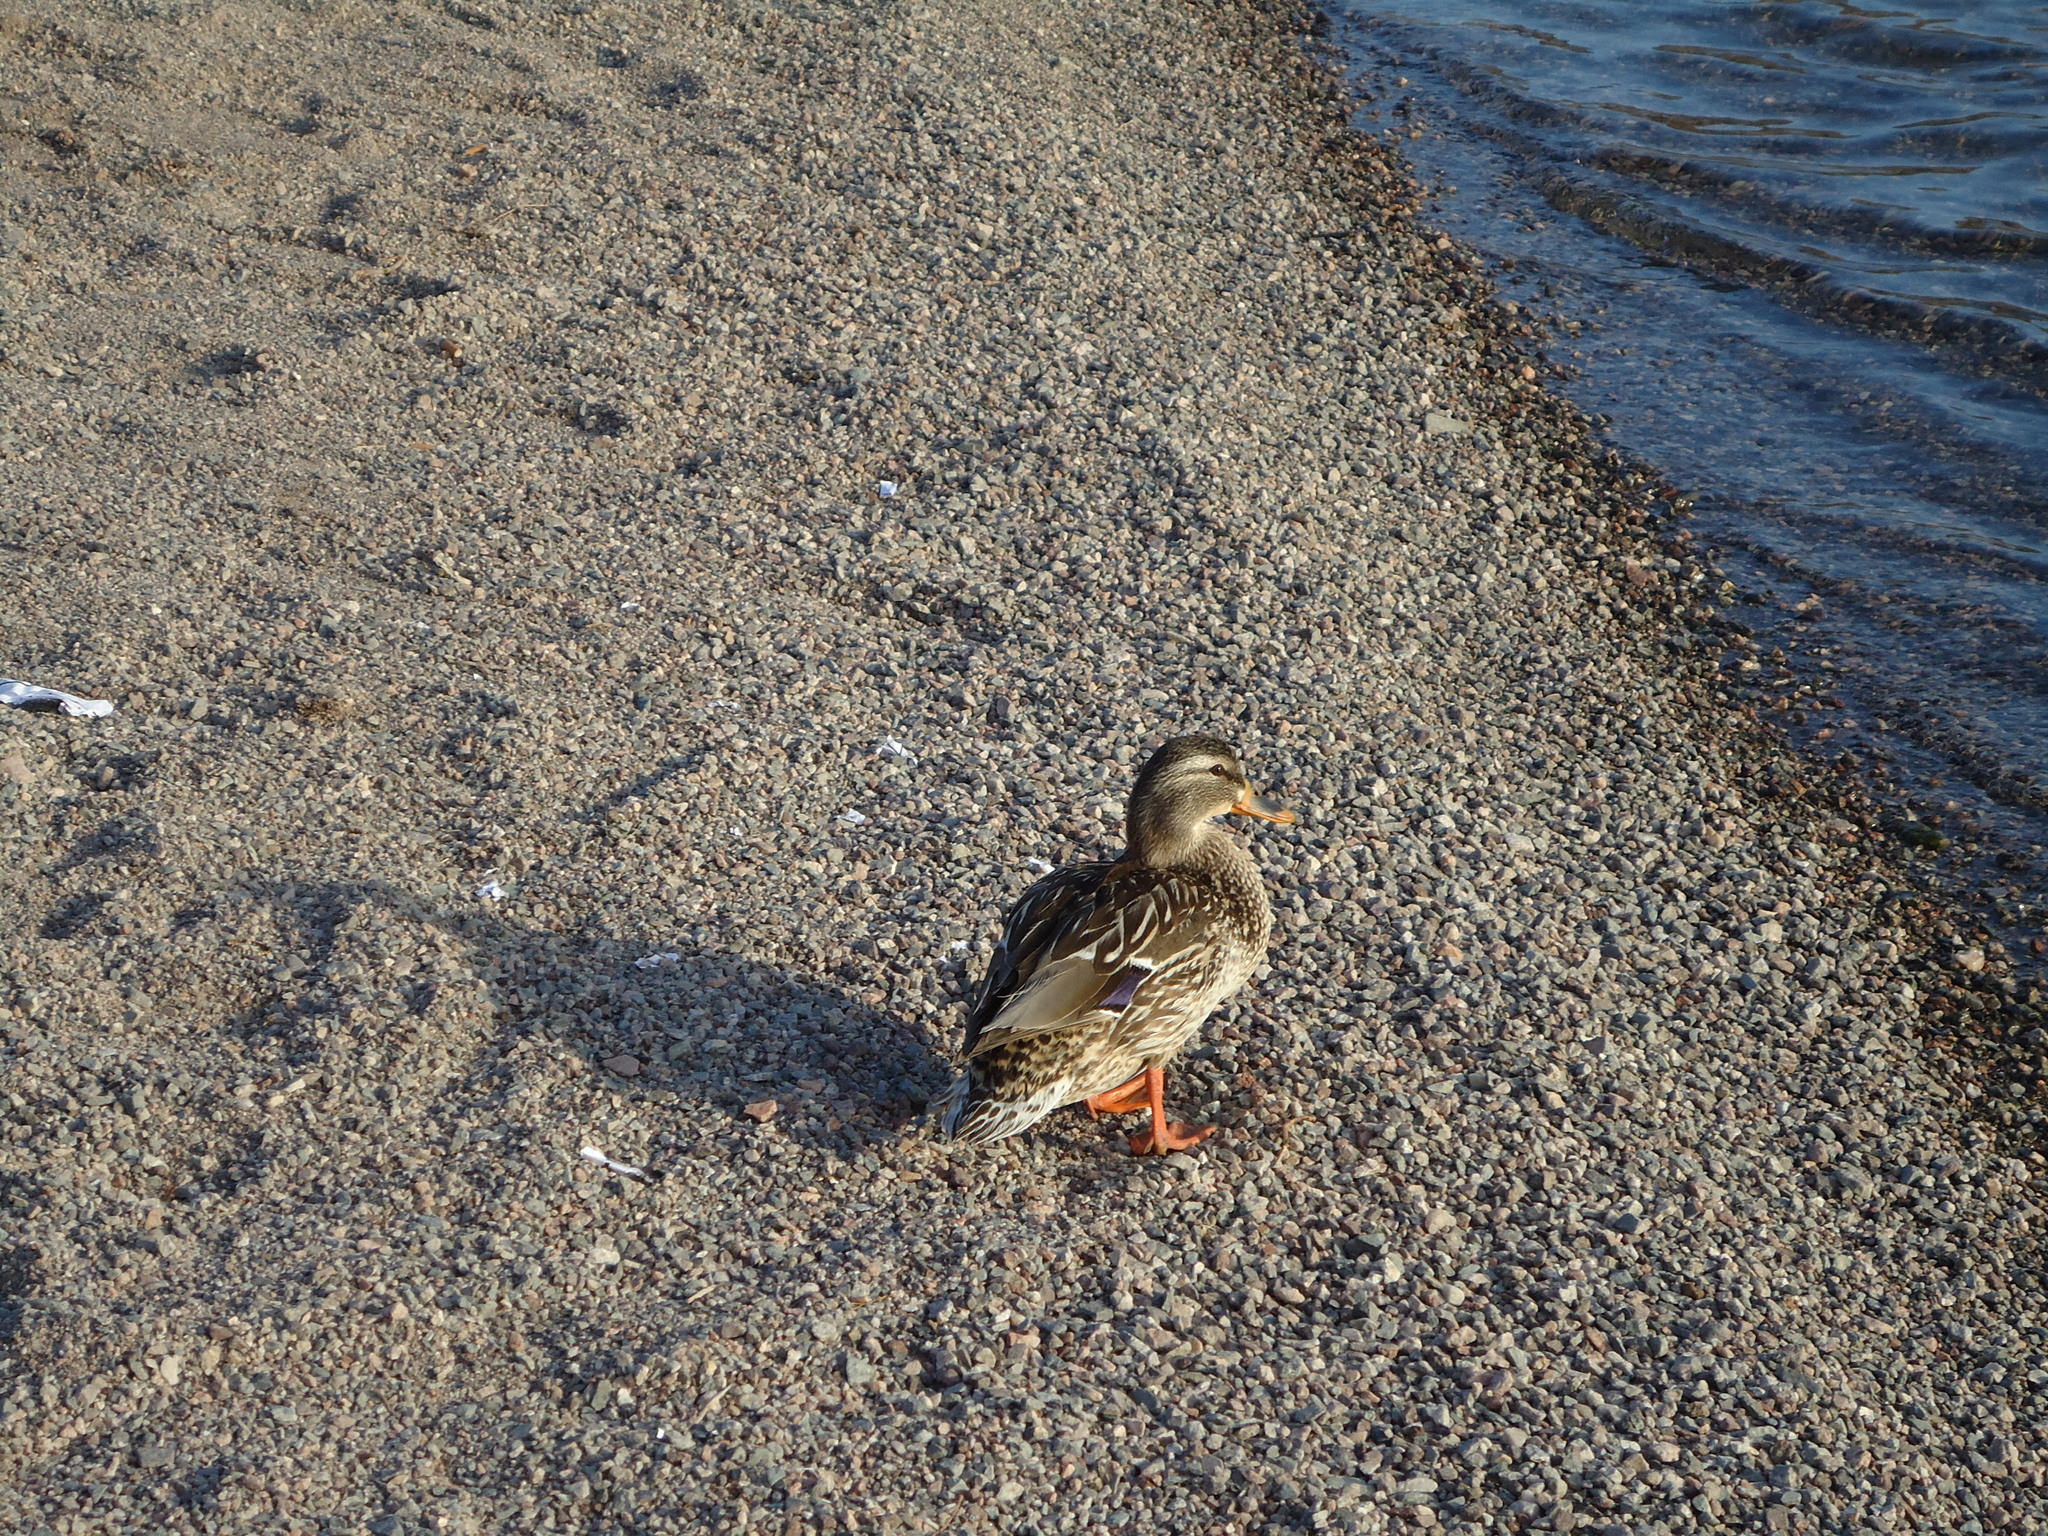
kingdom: Animalia
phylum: Chordata
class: Aves
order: Anseriformes
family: Anatidae
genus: Anas
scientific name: Anas platyrhynchos
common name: Mallard
